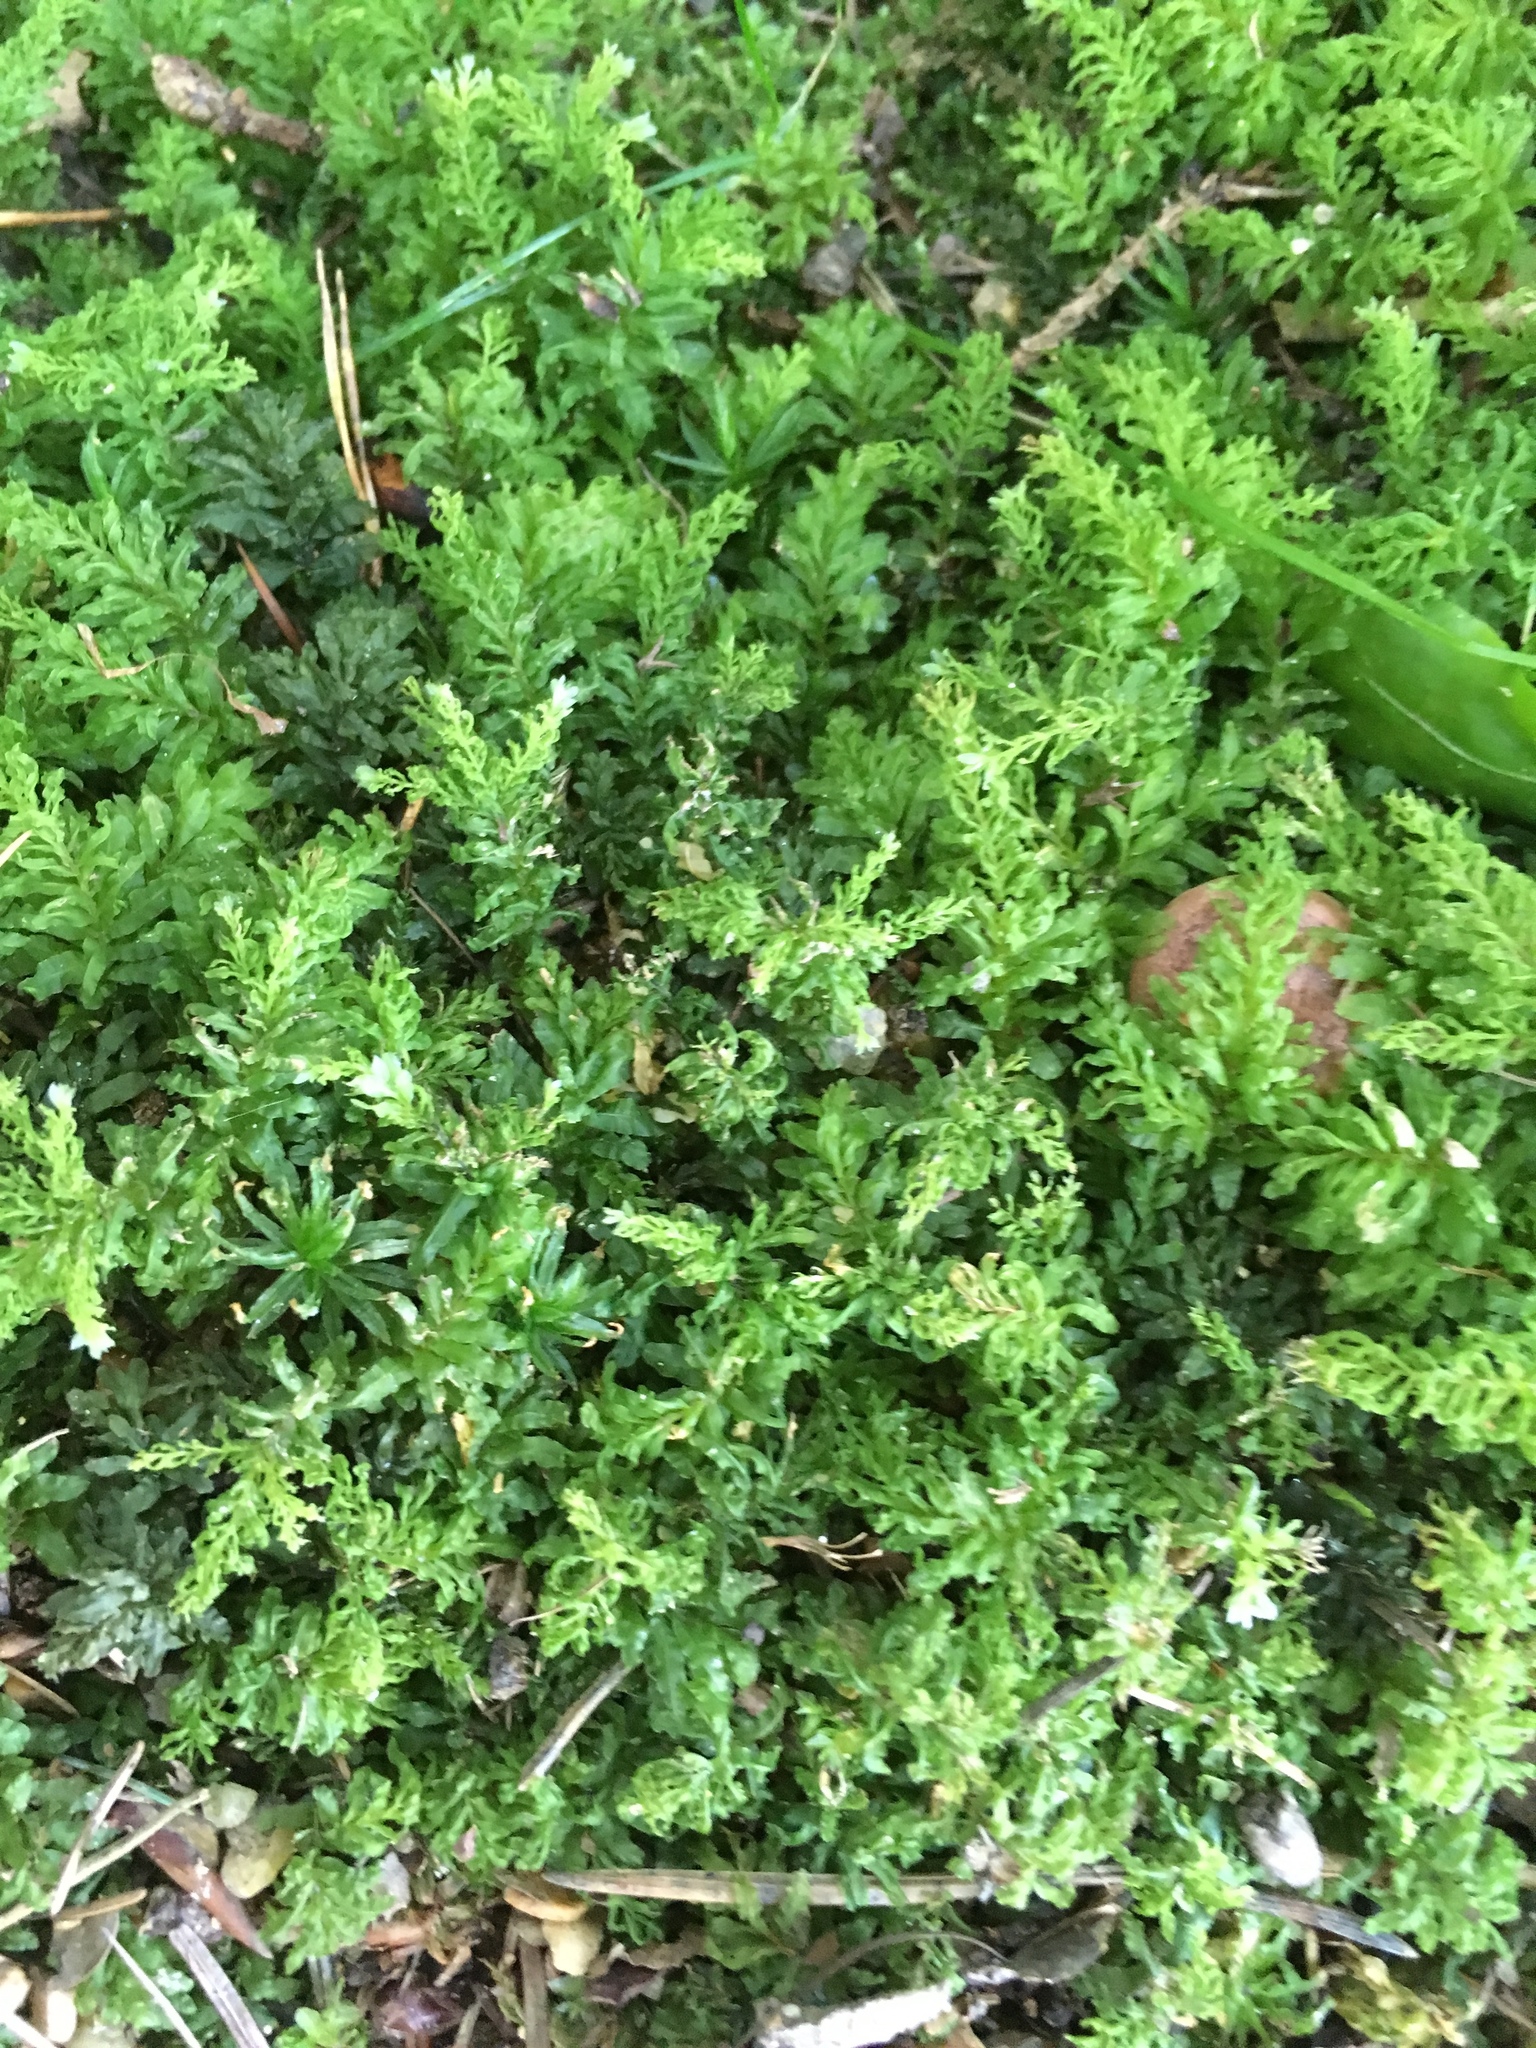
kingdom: Plantae
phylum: Bryophyta
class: Bryopsida
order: Bryales
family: Mniaceae
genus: Plagiomnium
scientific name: Plagiomnium undulatum
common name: Hart's-tongue thyme-moss
